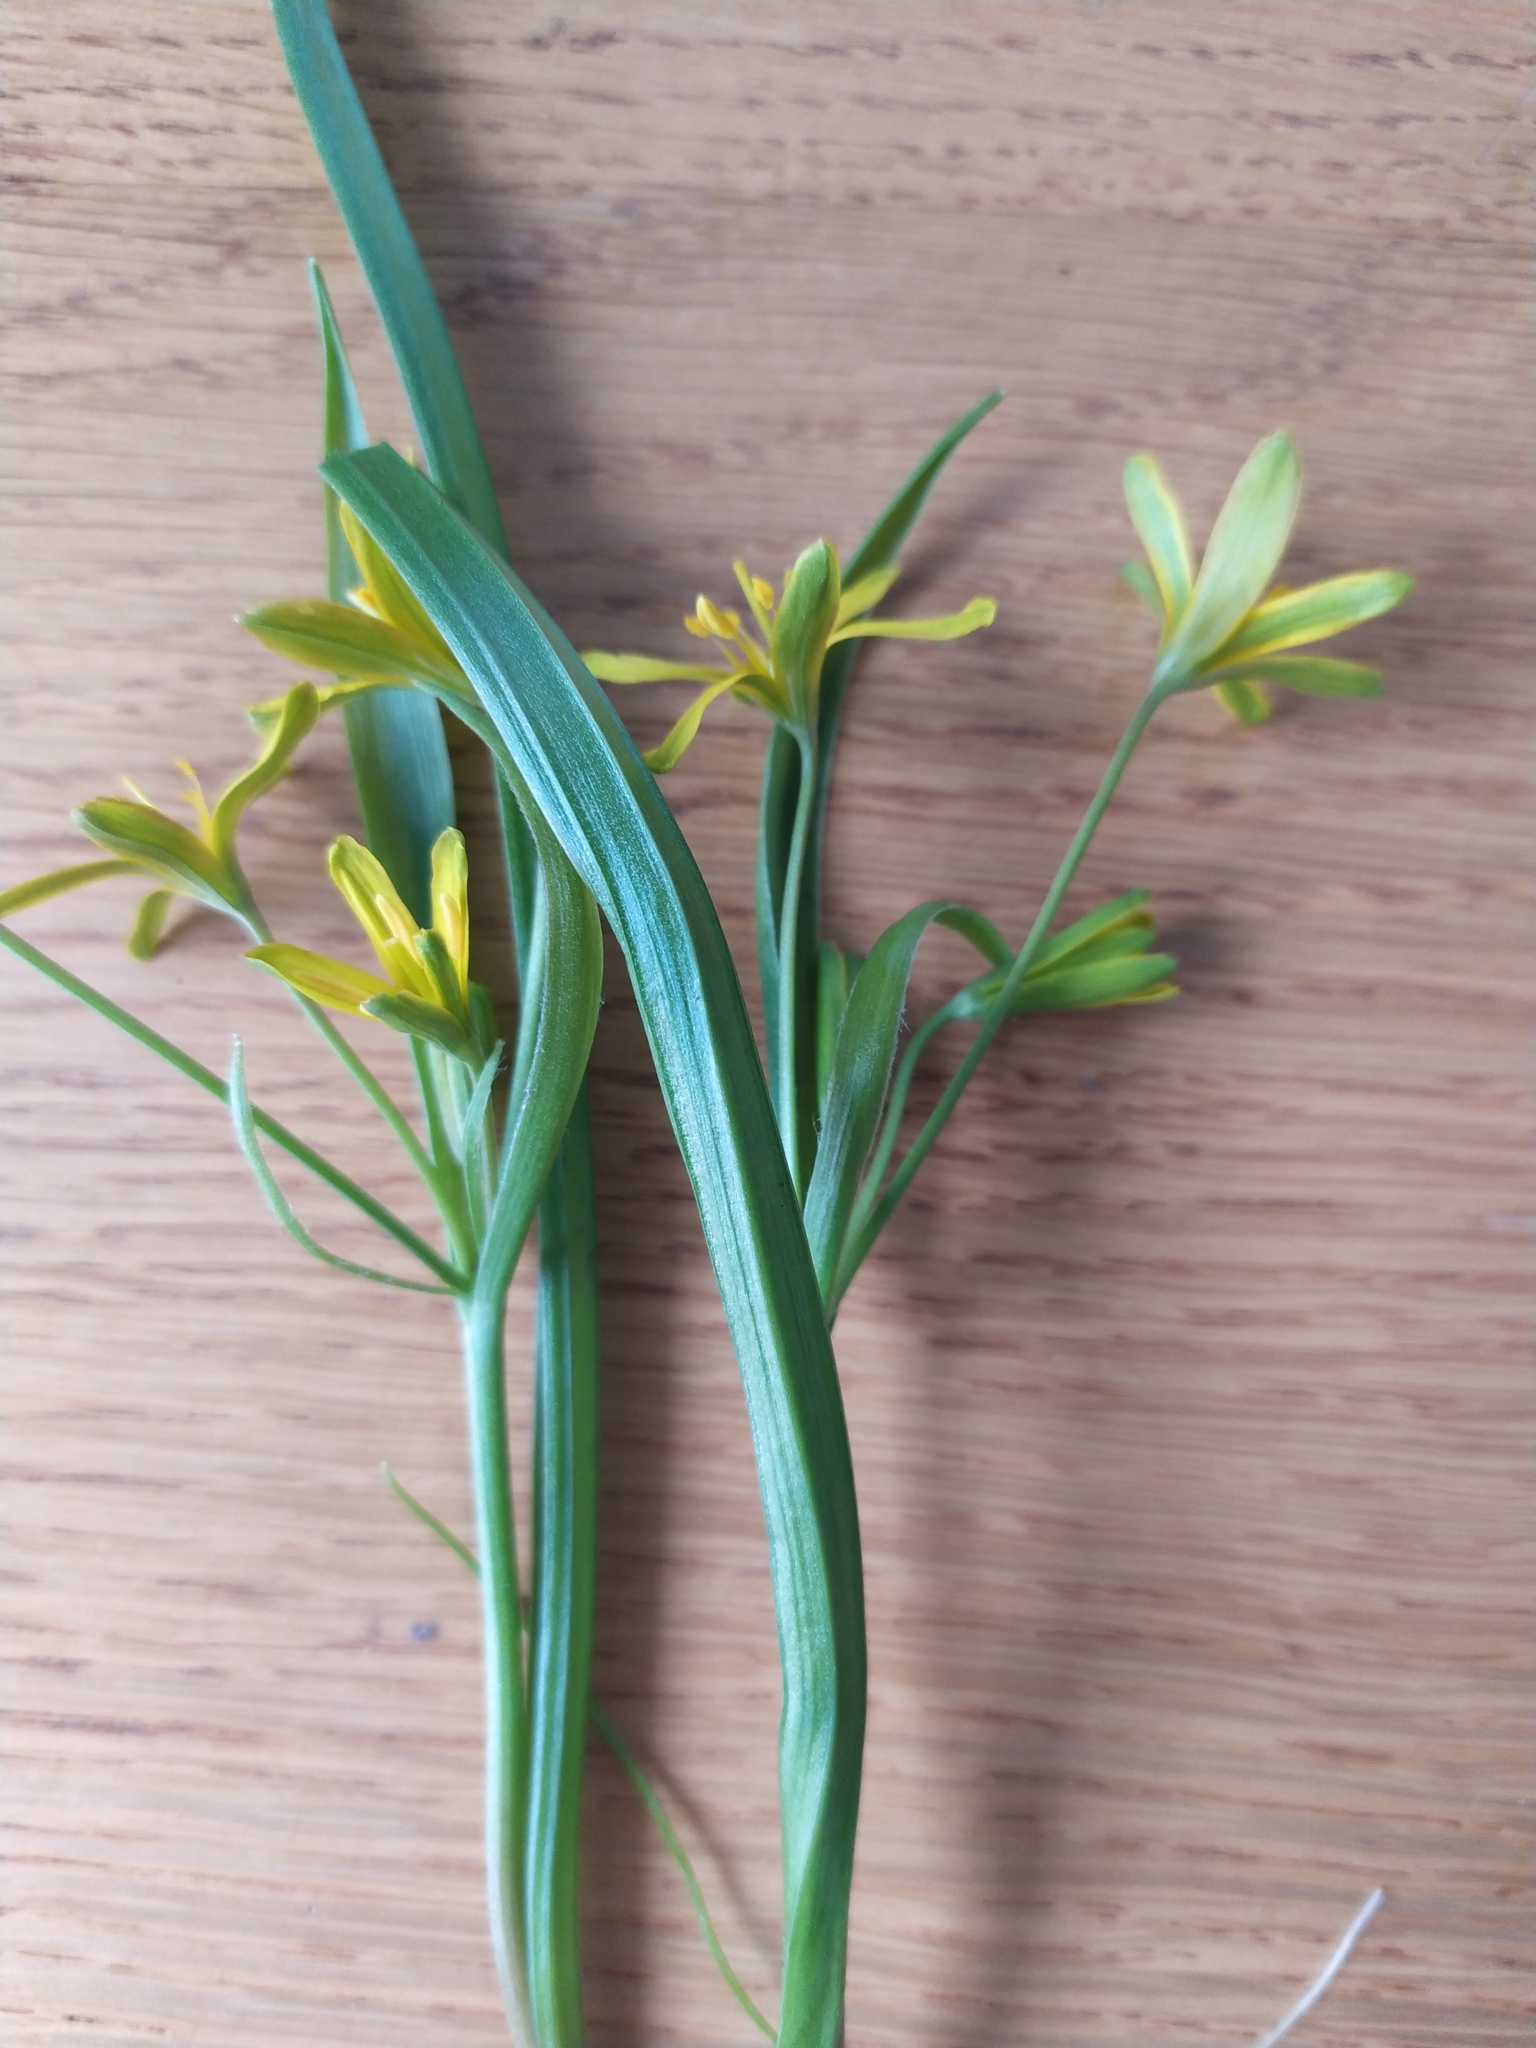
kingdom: Plantae
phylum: Tracheophyta
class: Liliopsida
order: Liliales
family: Liliaceae
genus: Gagea
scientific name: Gagea lutea
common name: Yellow star-of-bethlehem
